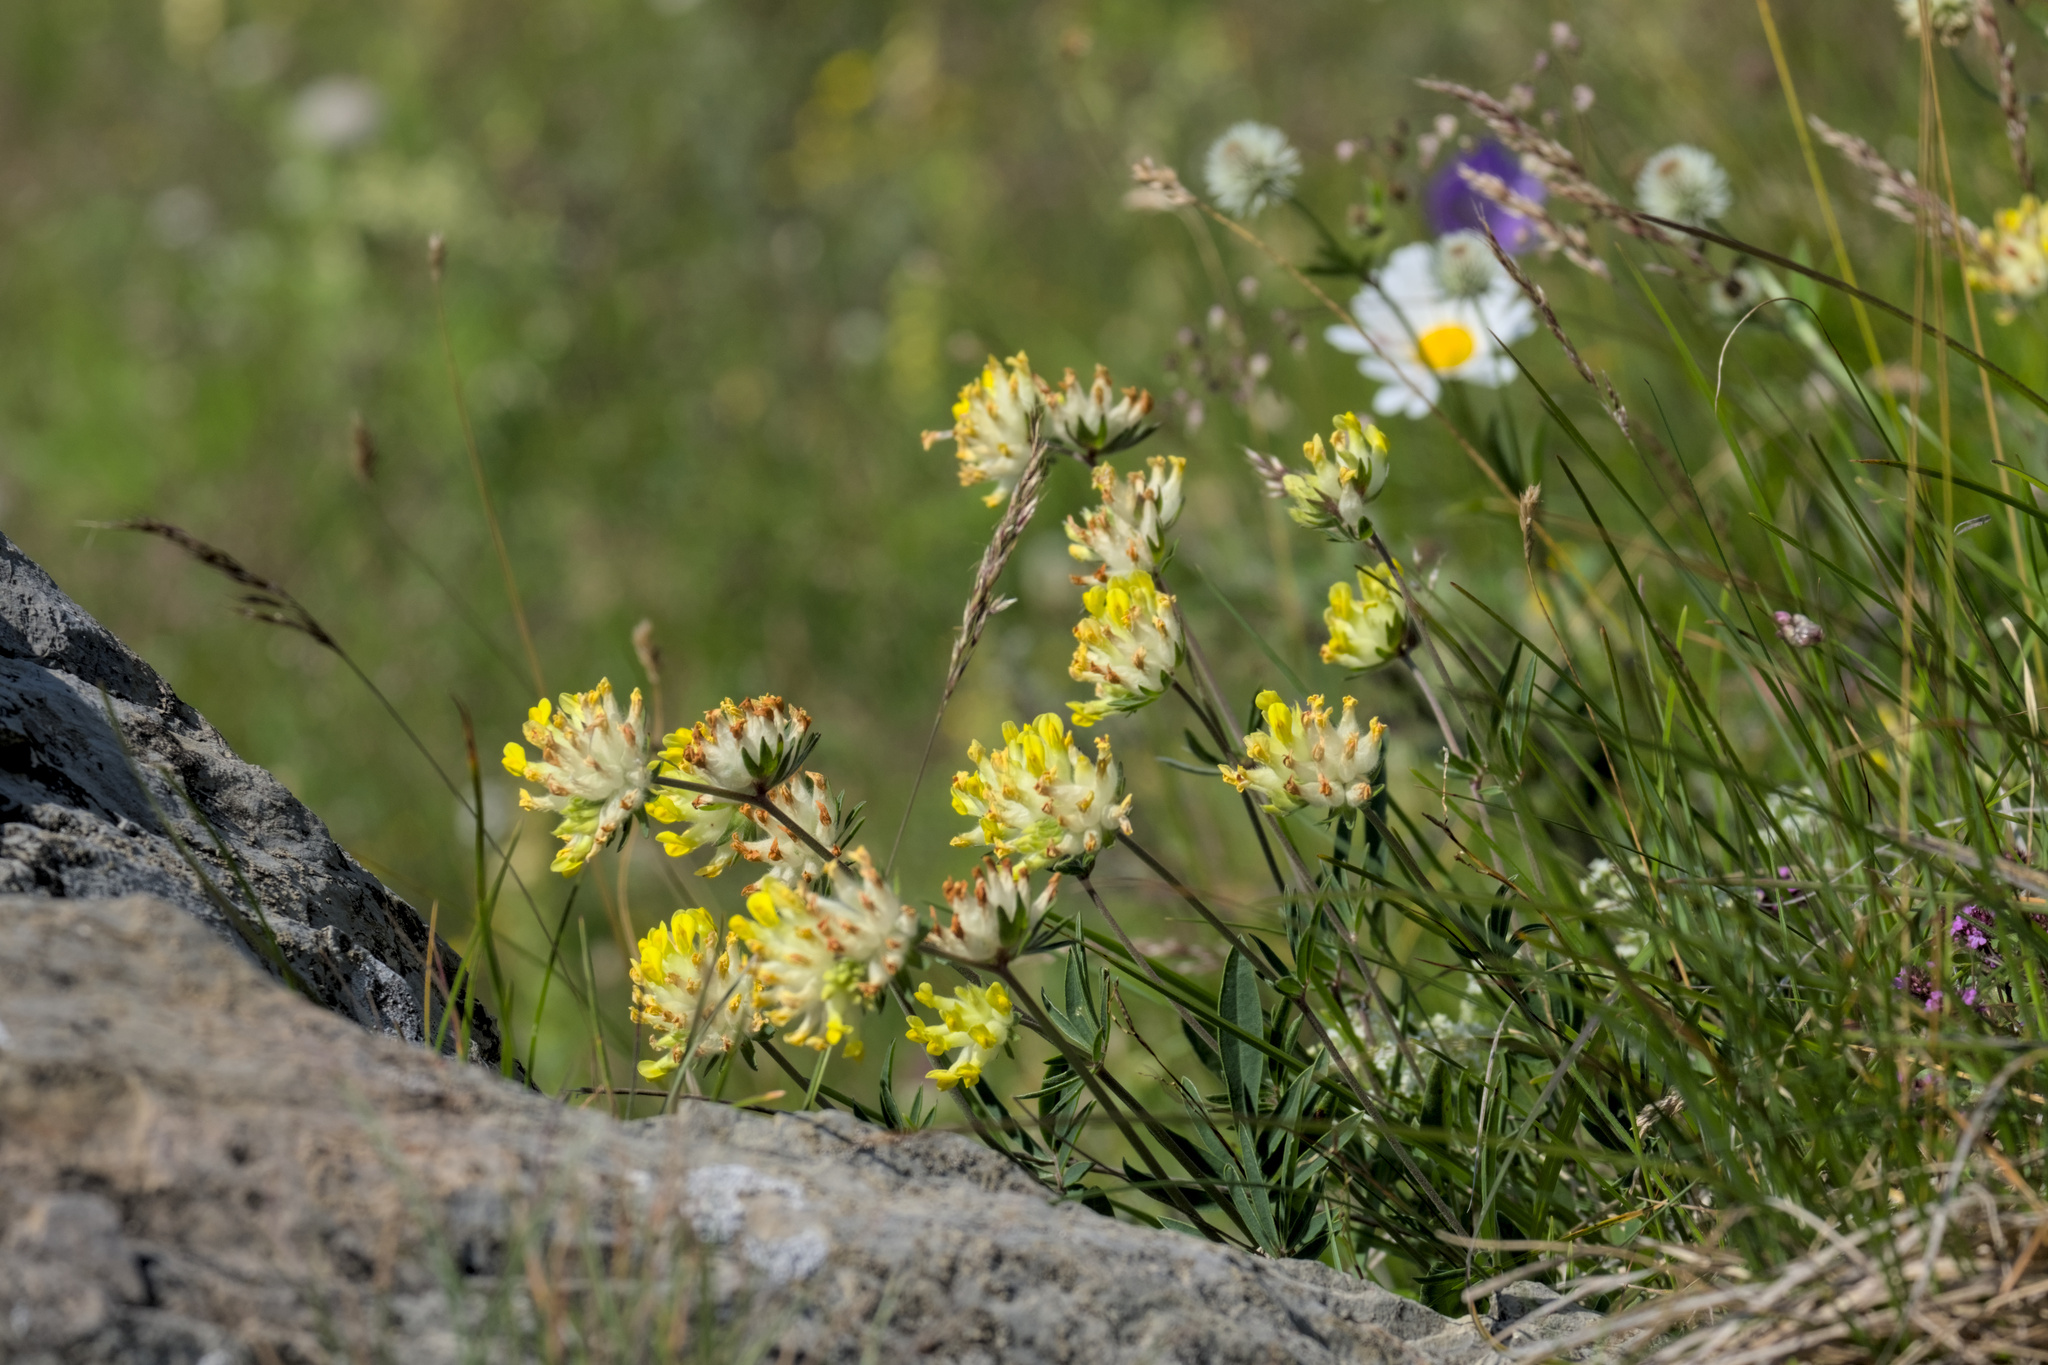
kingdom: Plantae
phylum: Tracheophyta
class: Magnoliopsida
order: Fabales
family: Fabaceae
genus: Anthyllis
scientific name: Anthyllis vulneraria
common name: Kidney vetch
